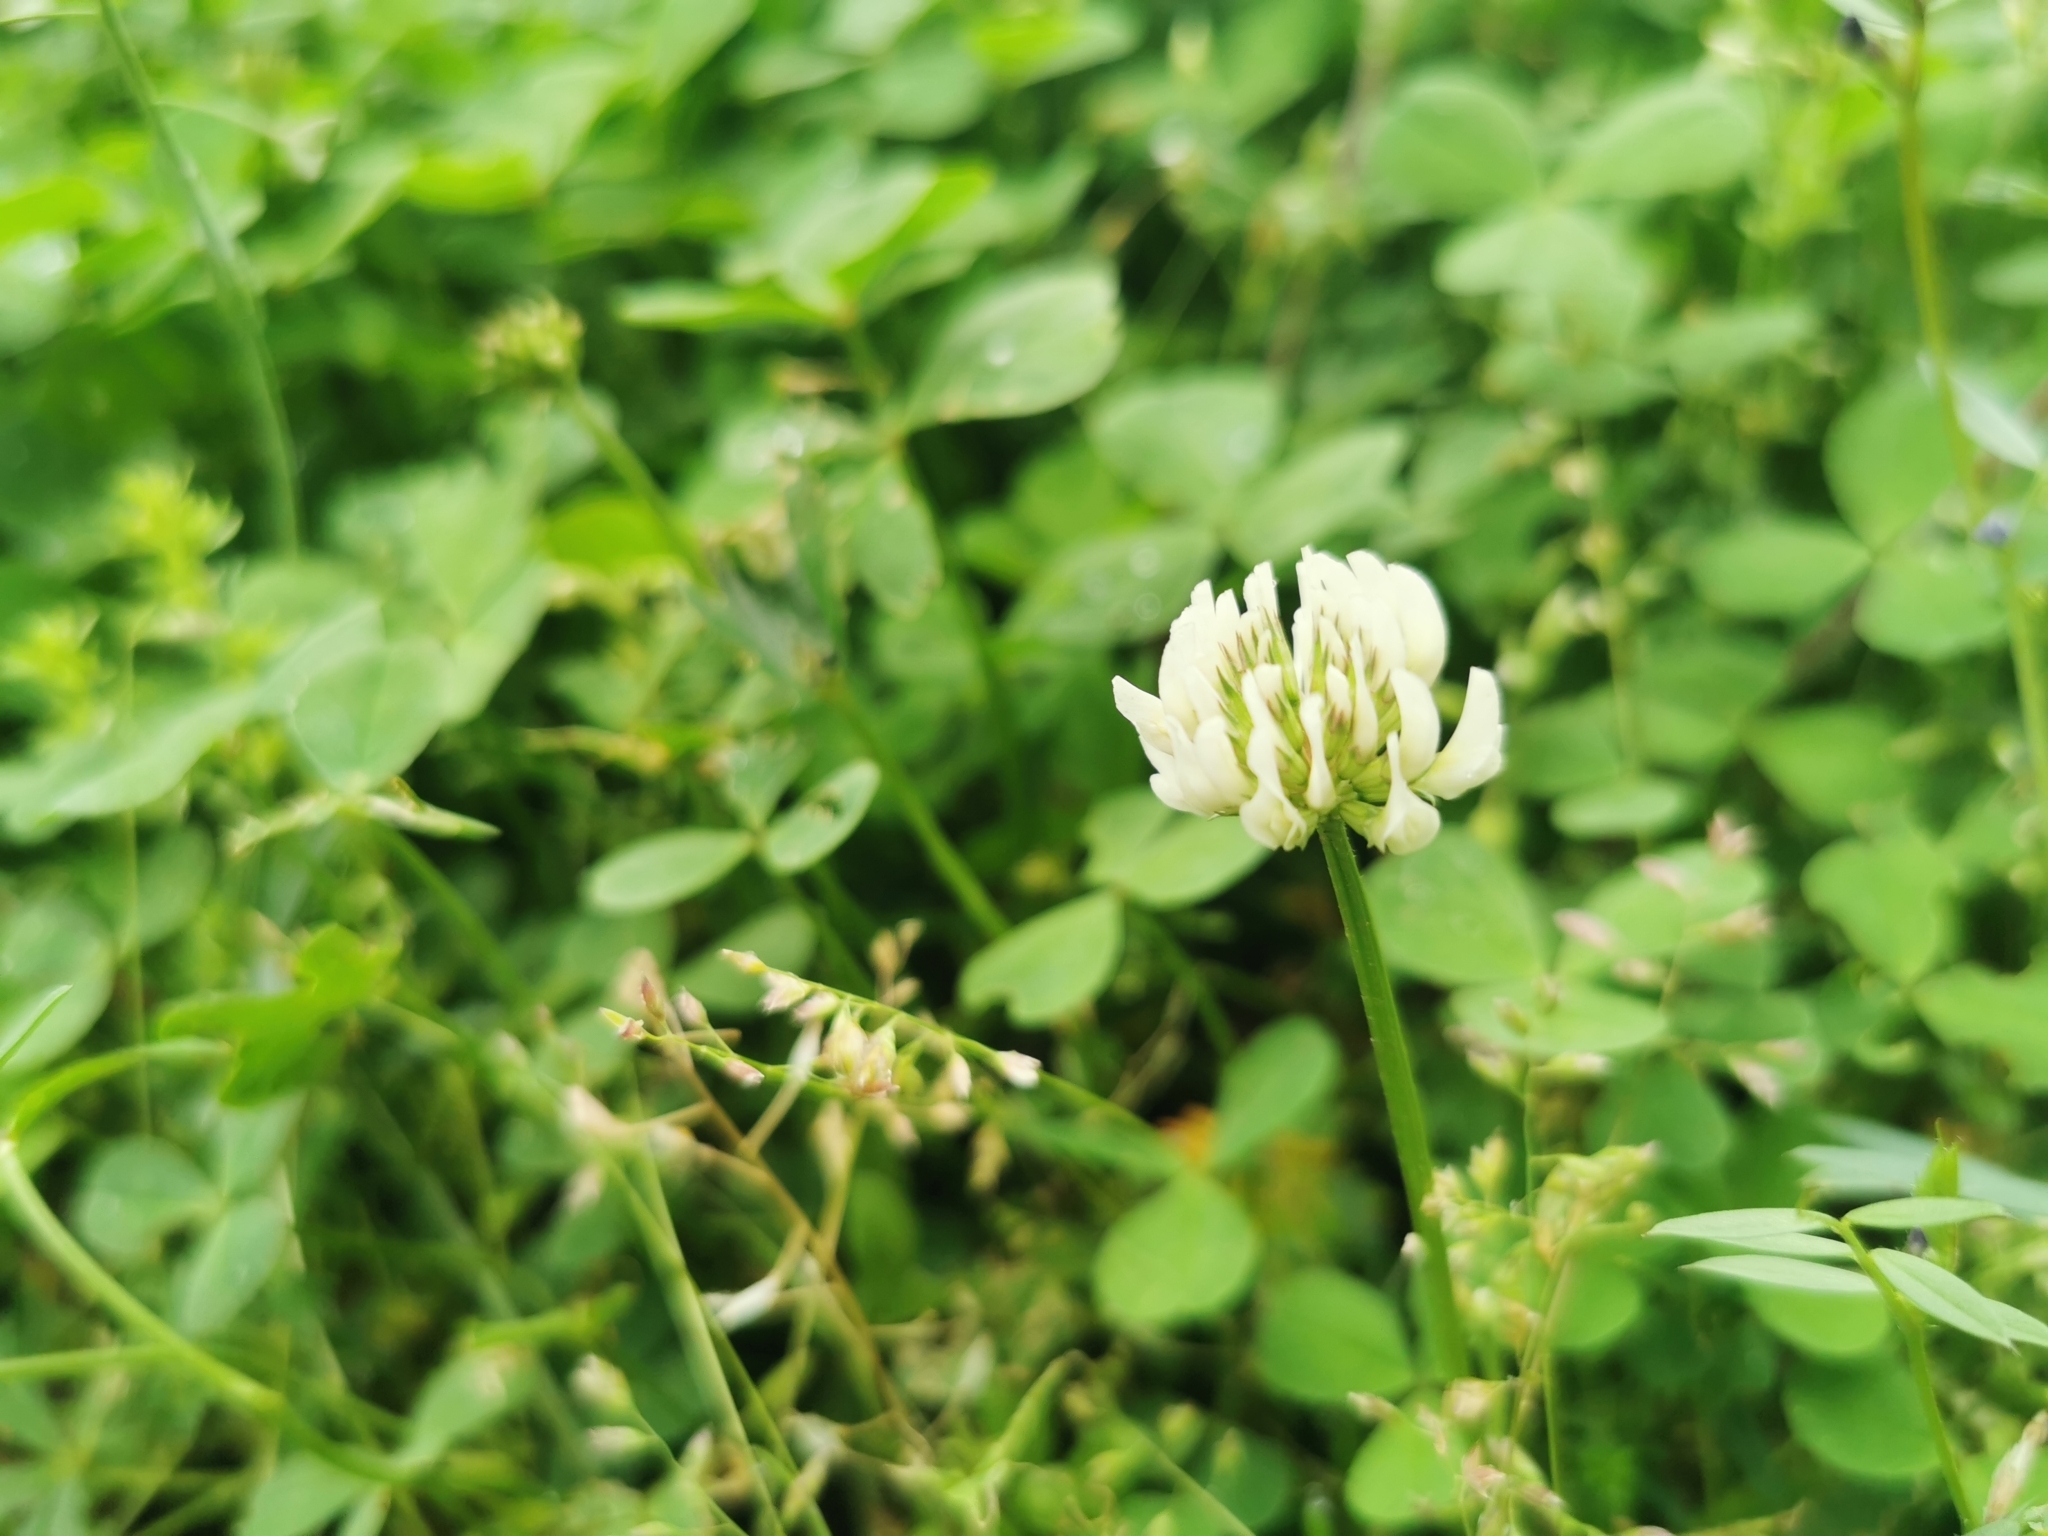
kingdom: Plantae
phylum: Tracheophyta
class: Magnoliopsida
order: Fabales
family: Fabaceae
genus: Trifolium
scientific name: Trifolium repens
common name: White clover
